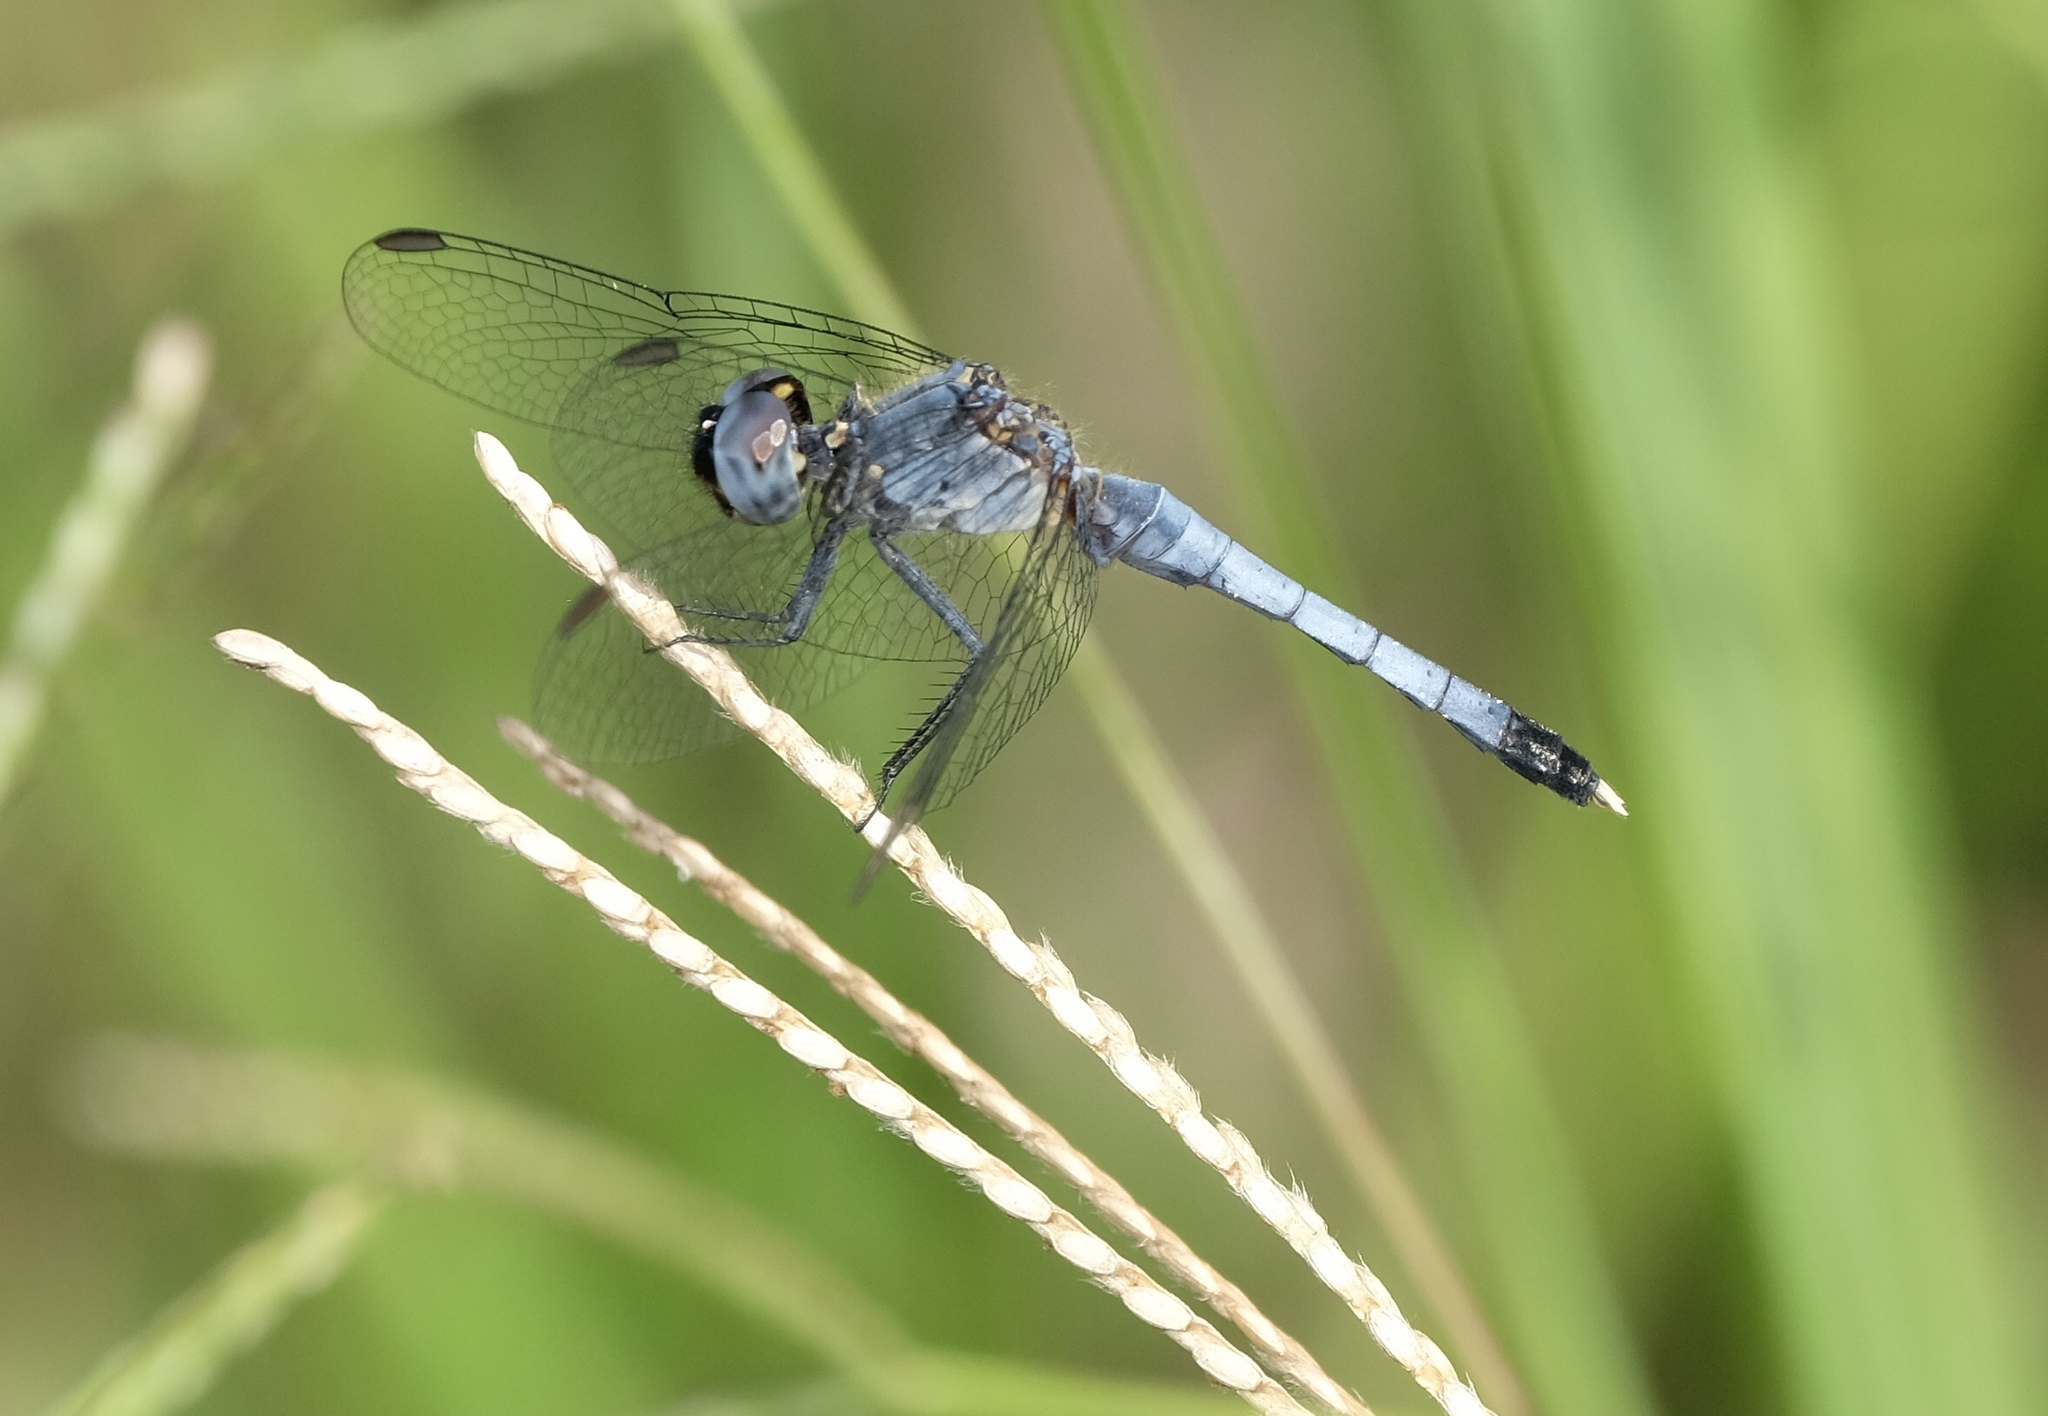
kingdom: Animalia
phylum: Arthropoda
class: Insecta
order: Odonata
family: Libellulidae
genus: Erythrodiplax
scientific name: Erythrodiplax minuscula
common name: Little blue dragonlet
